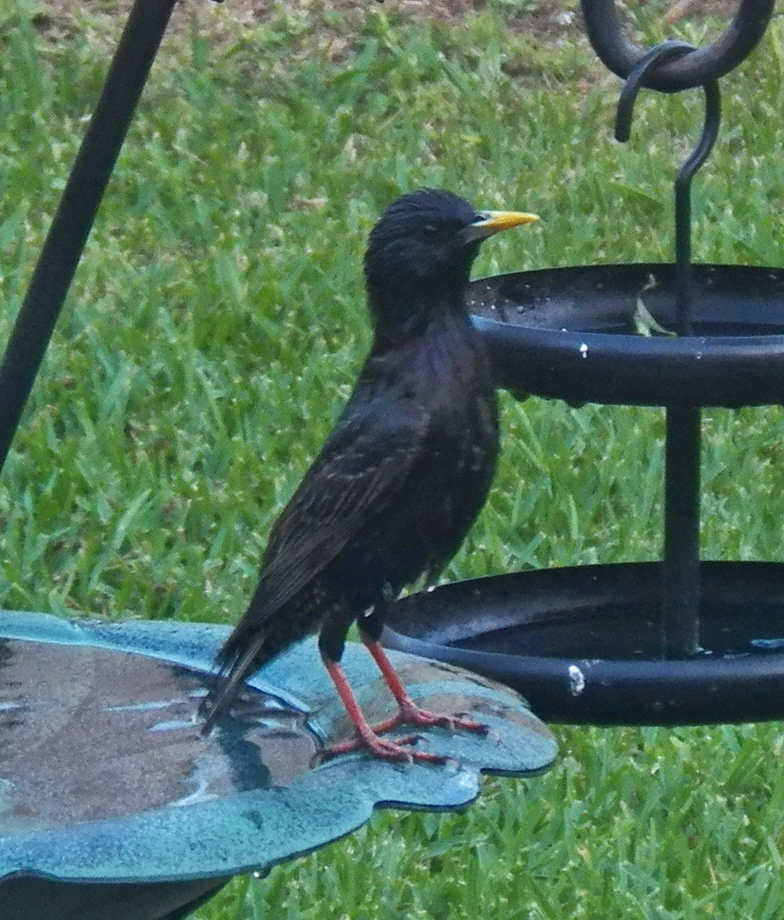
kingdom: Animalia
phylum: Chordata
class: Aves
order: Passeriformes
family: Sturnidae
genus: Sturnus
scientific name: Sturnus vulgaris
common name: Common starling
